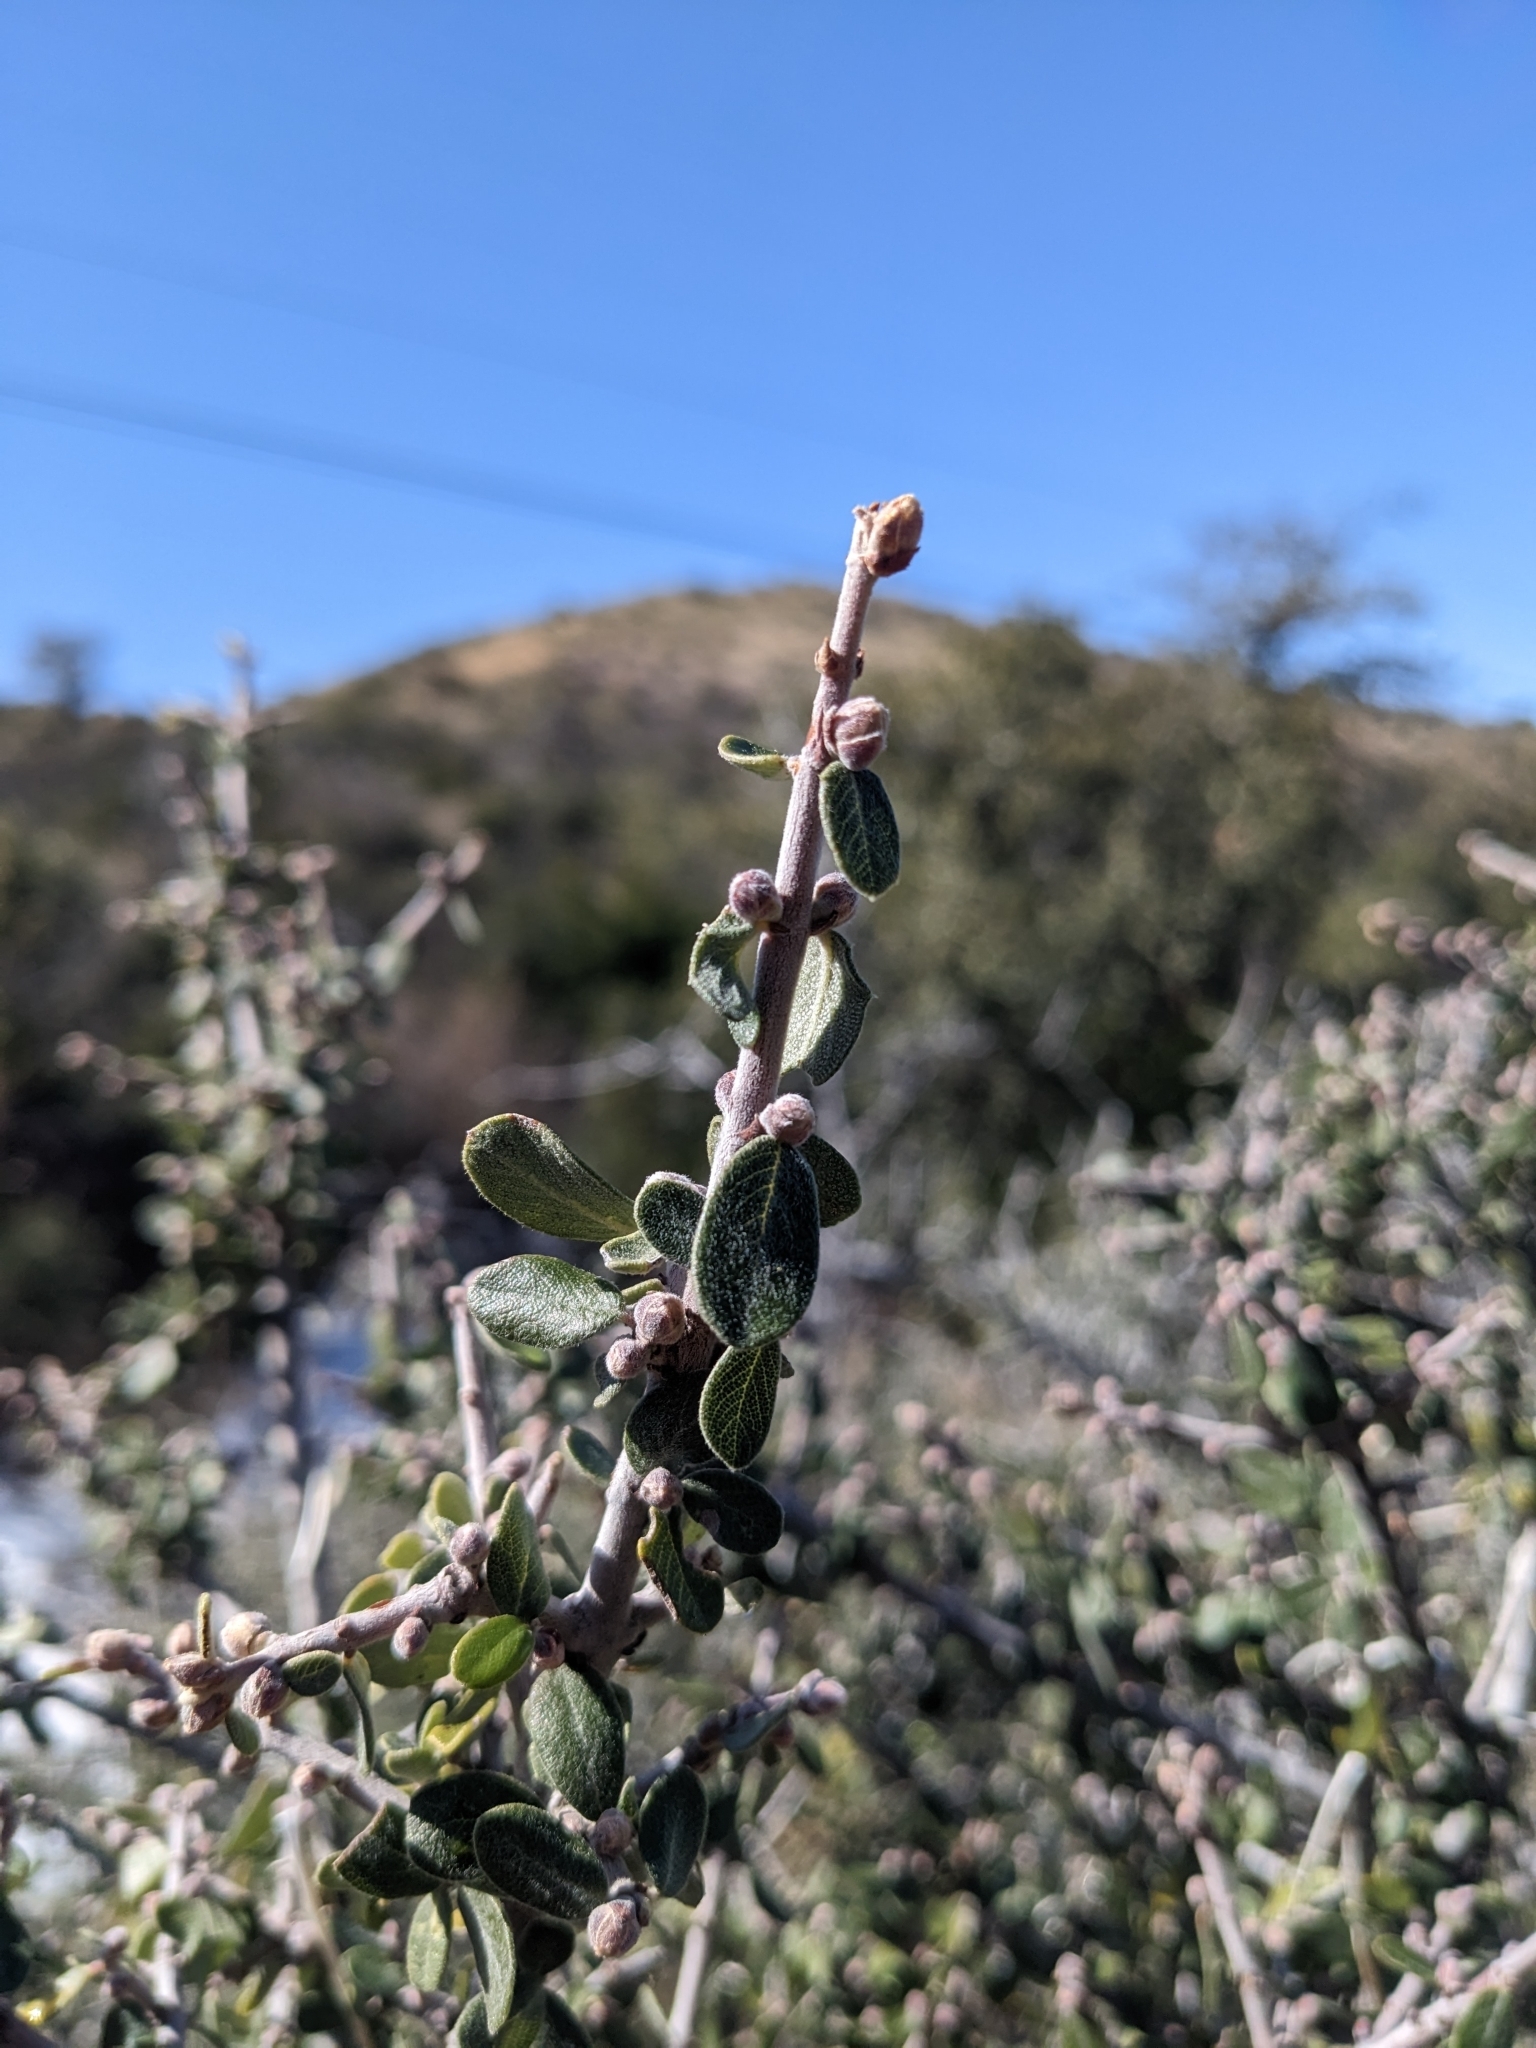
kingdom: Plantae
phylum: Tracheophyta
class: Magnoliopsida
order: Rosales
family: Rhamnaceae
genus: Ceanothus
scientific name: Ceanothus pauciflorus
